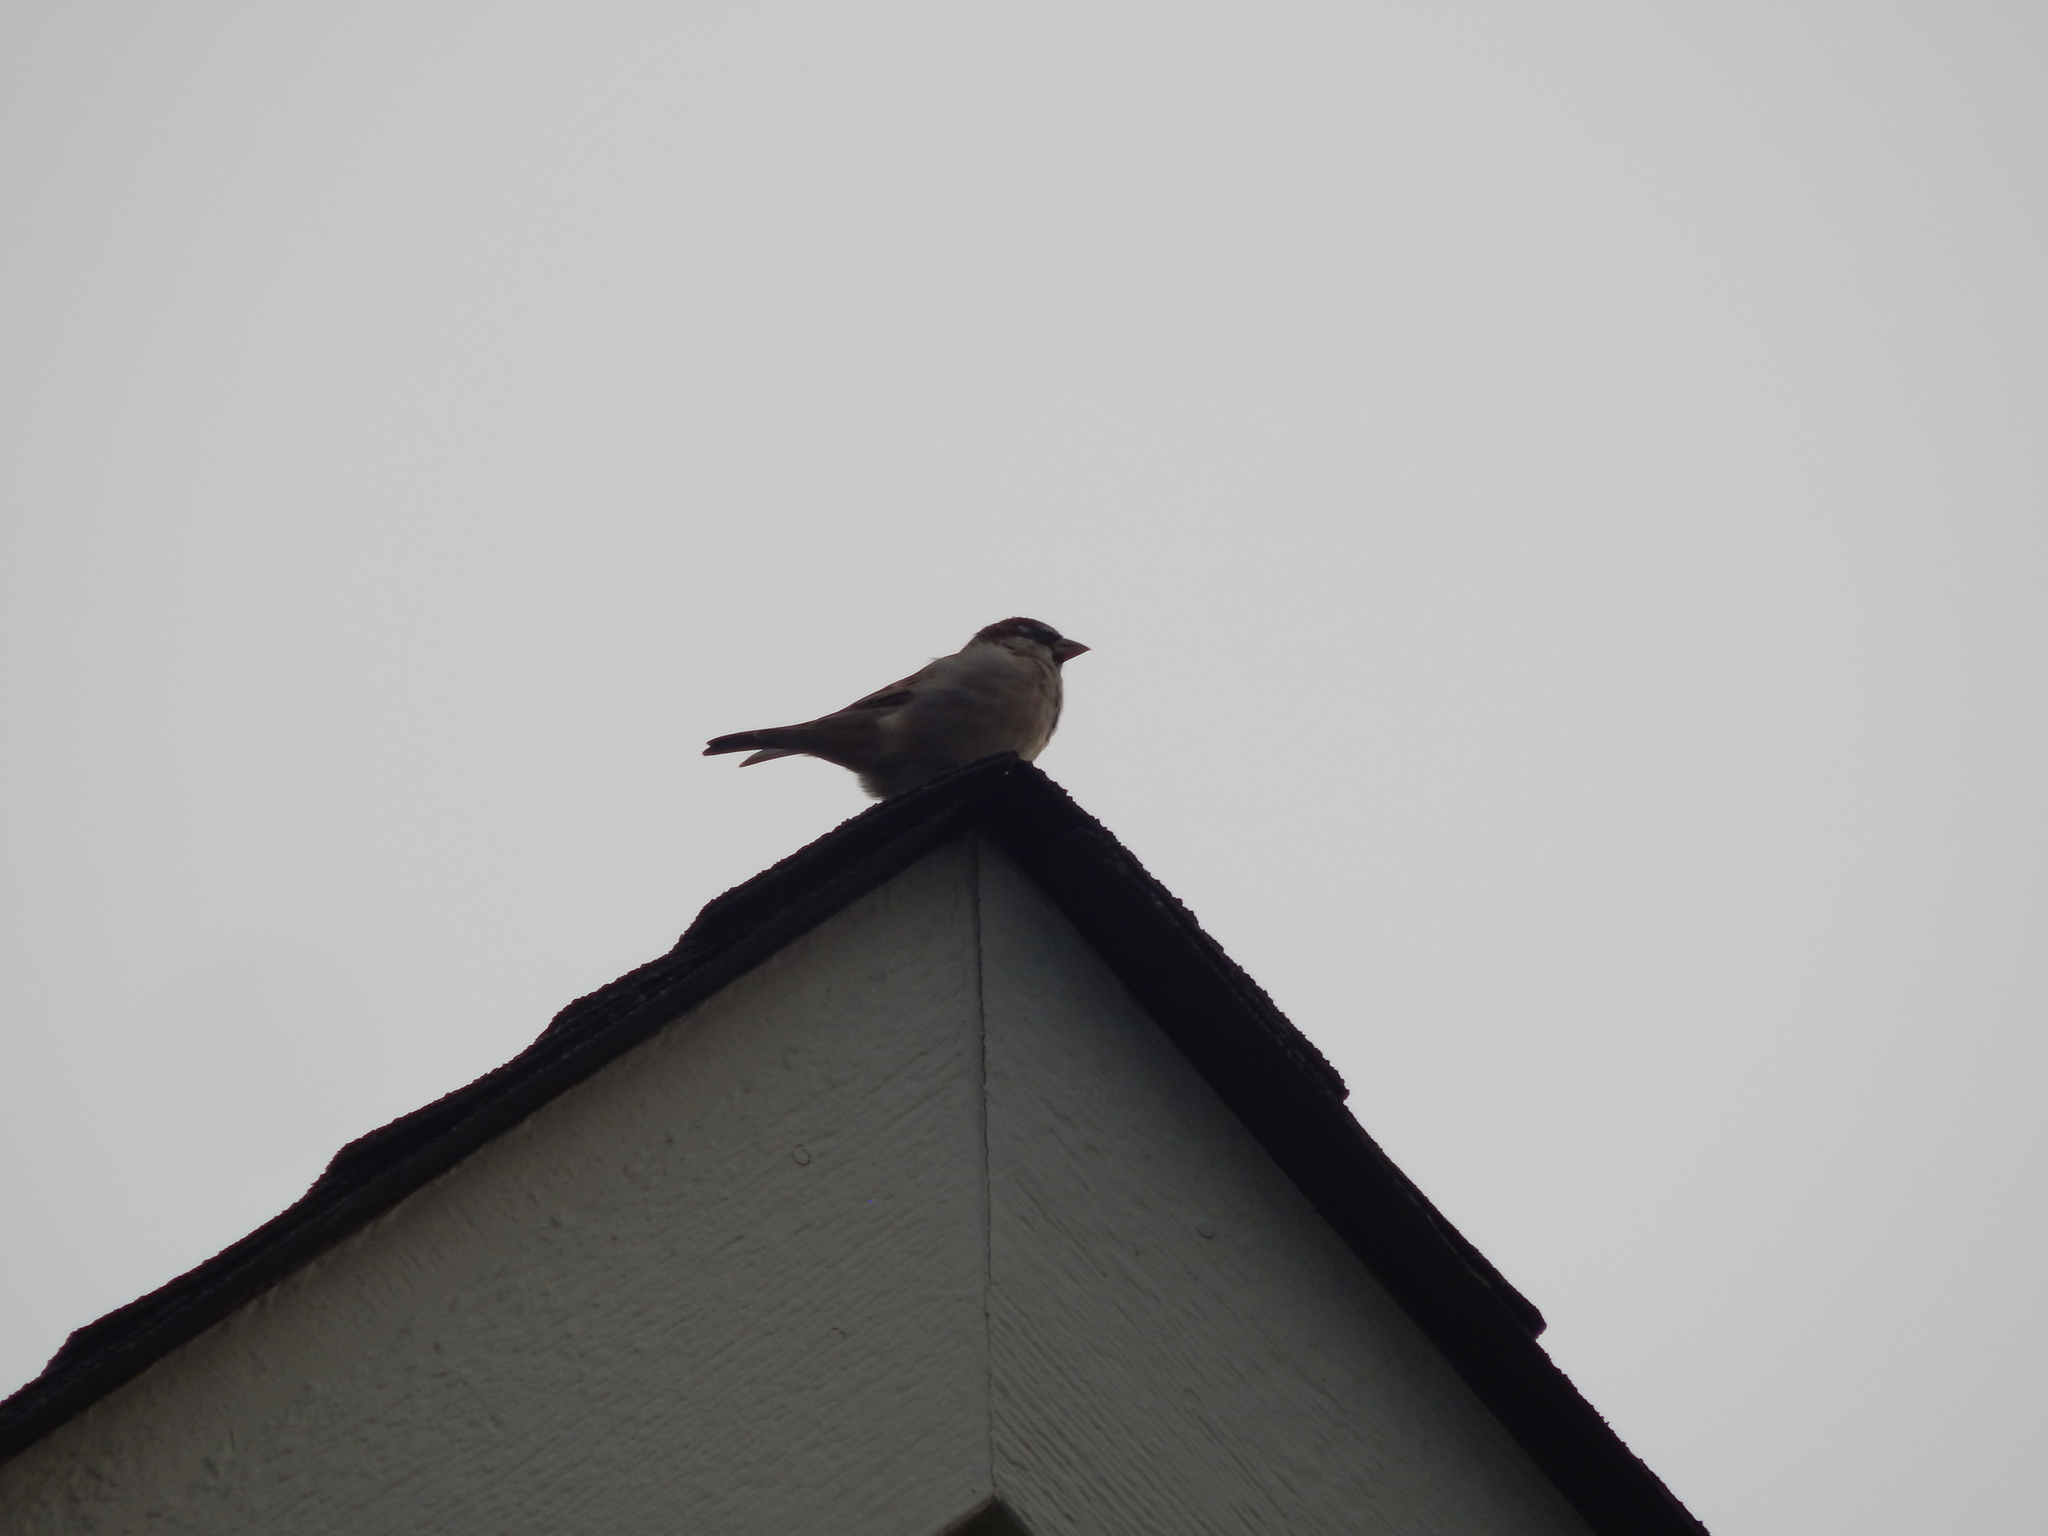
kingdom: Animalia
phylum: Chordata
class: Aves
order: Passeriformes
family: Passeridae
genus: Passer
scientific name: Passer domesticus
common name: House sparrow
